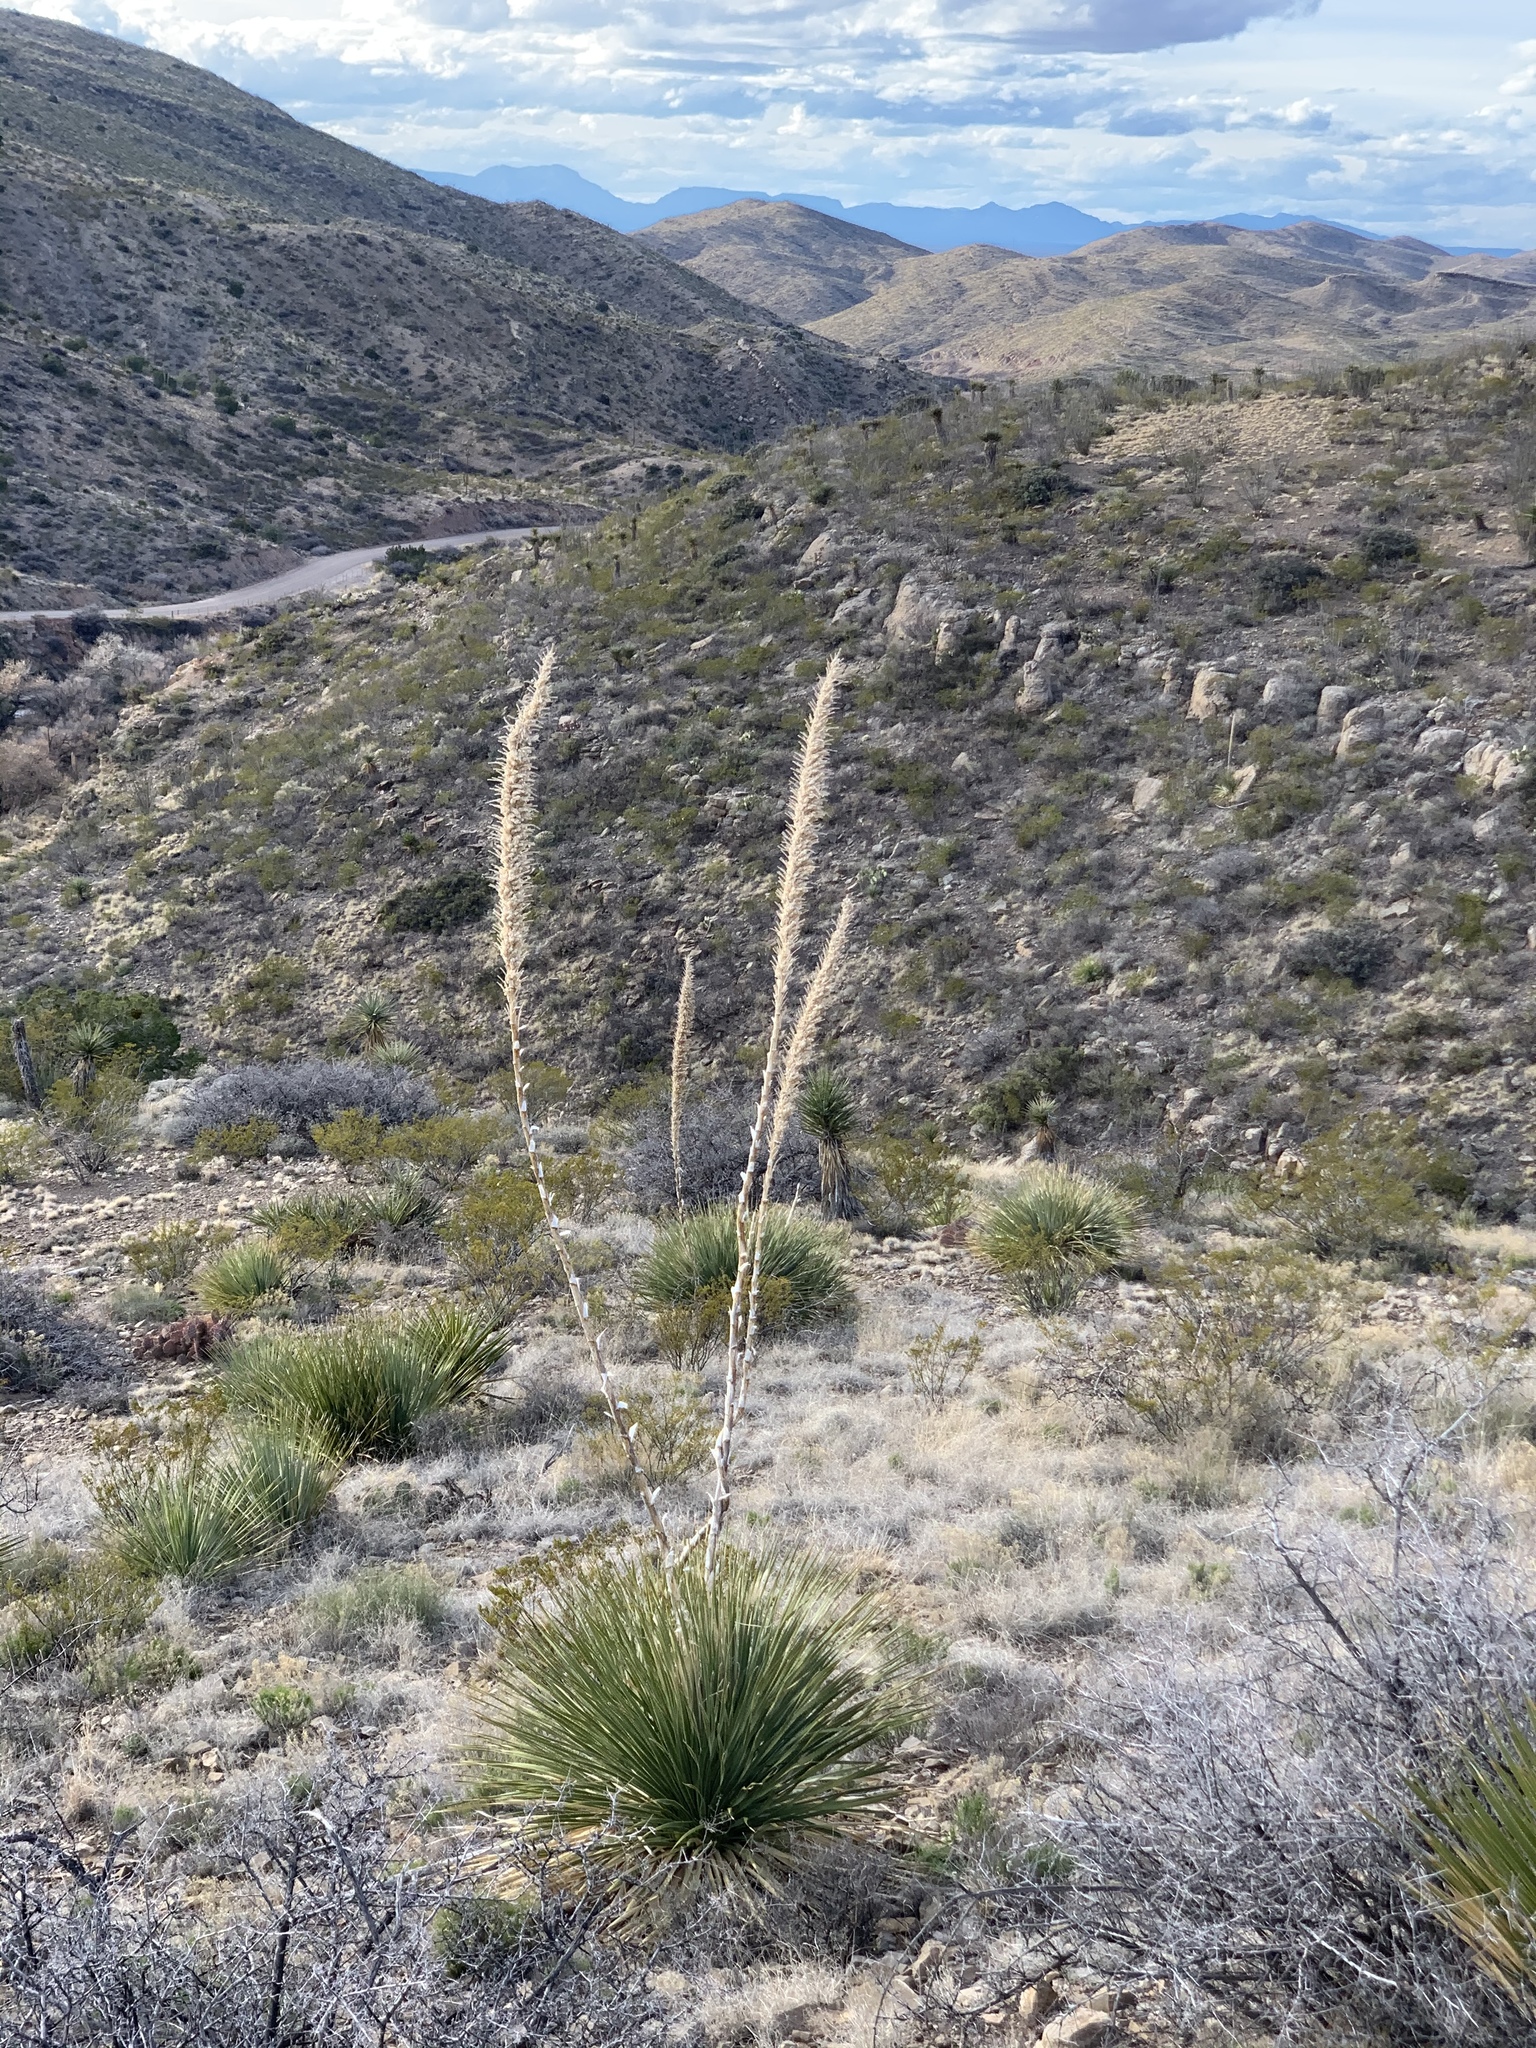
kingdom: Plantae
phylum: Tracheophyta
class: Liliopsida
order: Asparagales
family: Asparagaceae
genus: Dasylirion
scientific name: Dasylirion wheeleri
